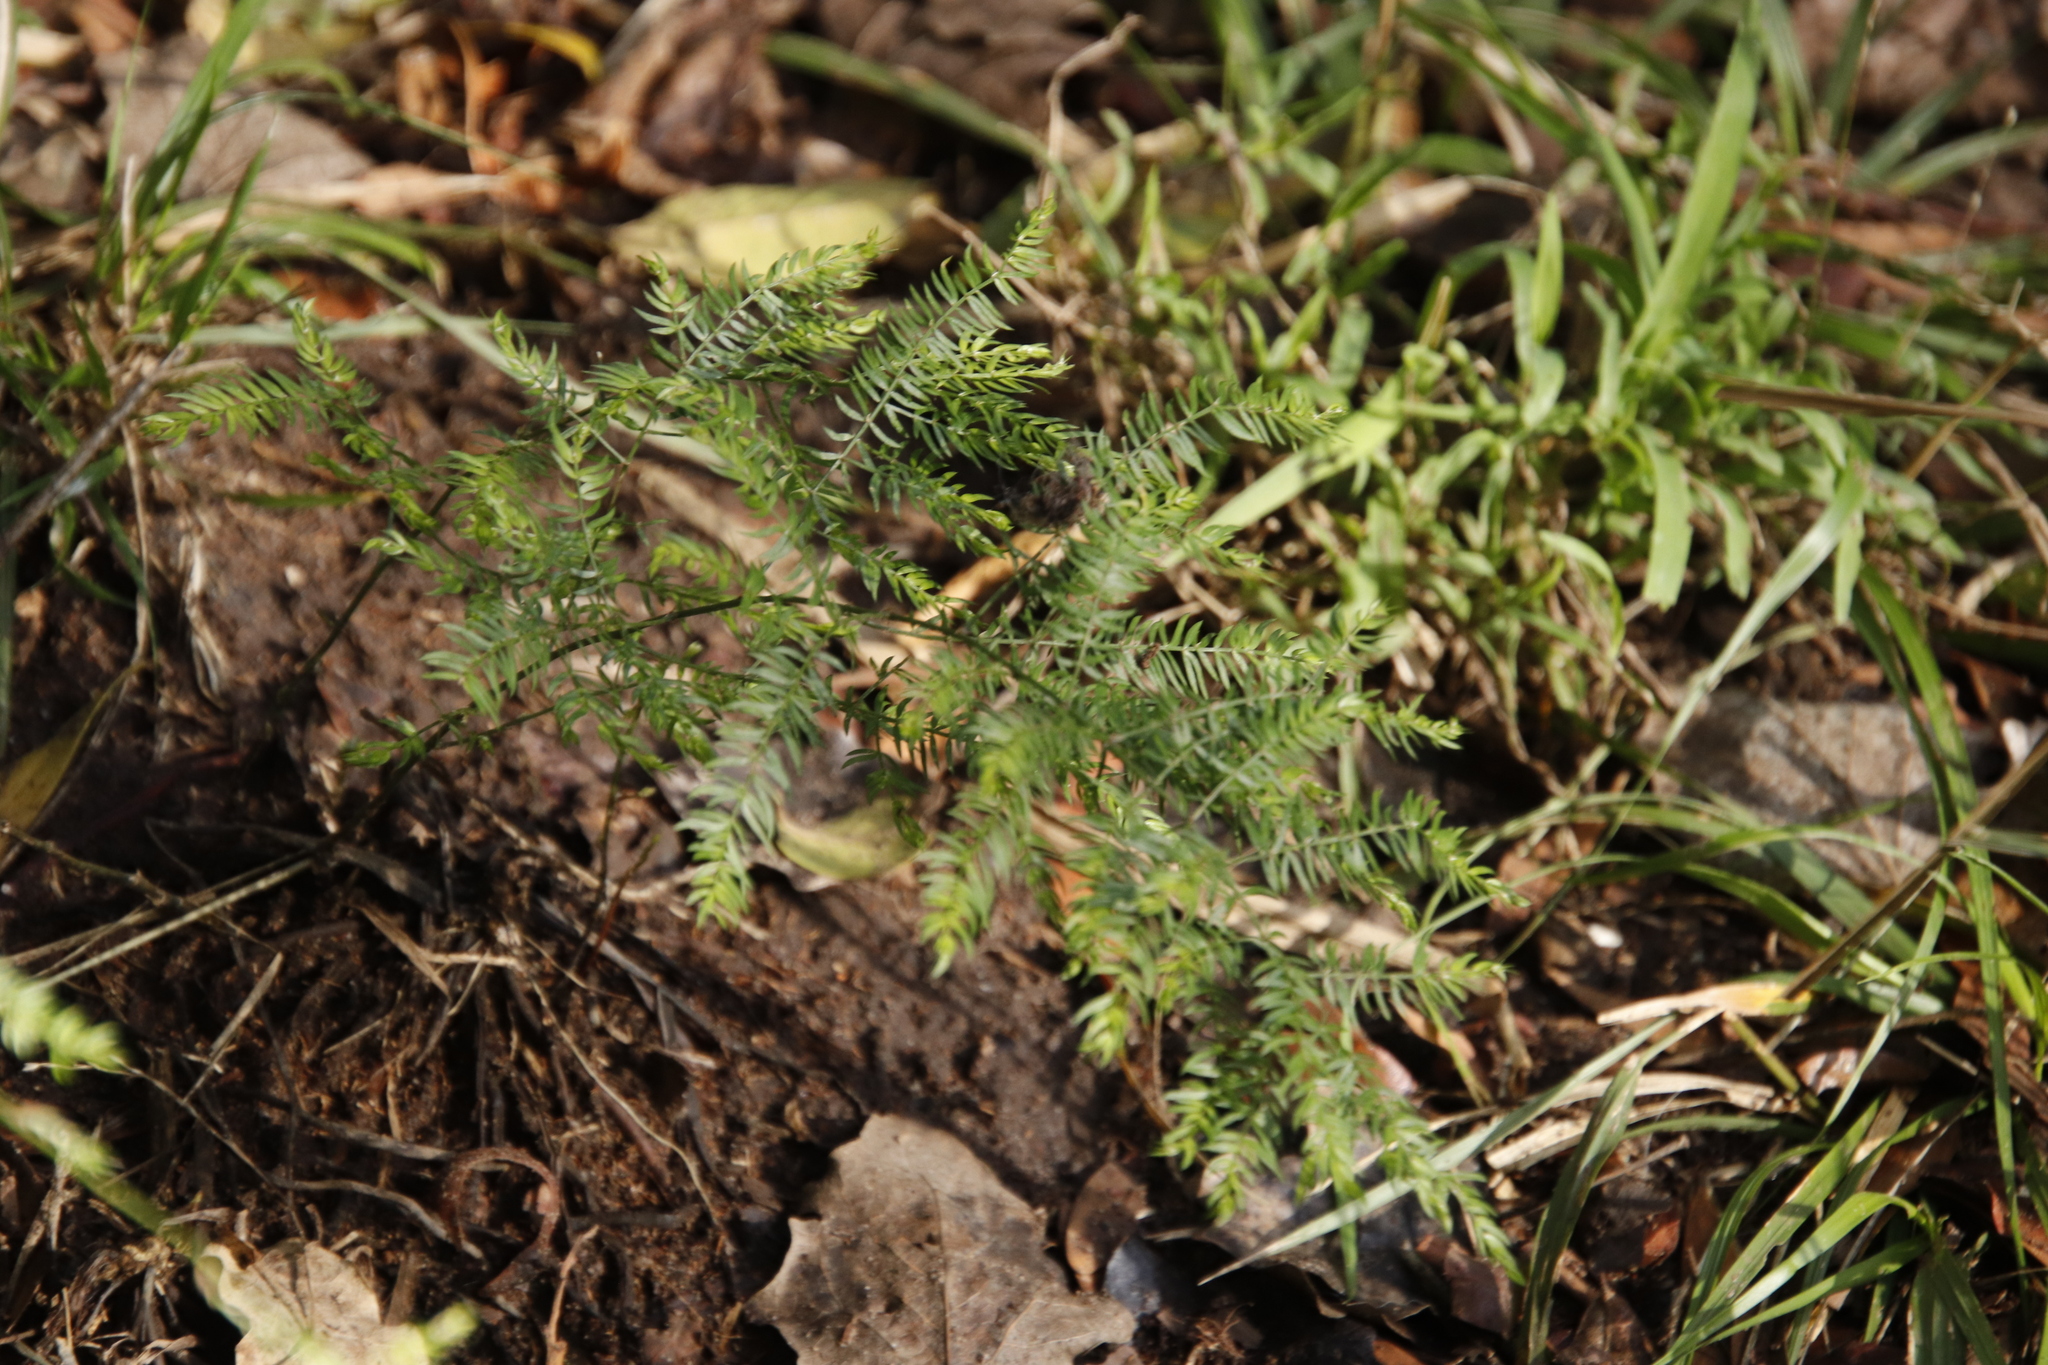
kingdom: Plantae
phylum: Tracheophyta
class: Liliopsida
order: Asparagales
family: Asparagaceae
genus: Asparagus
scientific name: Asparagus scandens
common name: Asparagus-fern
